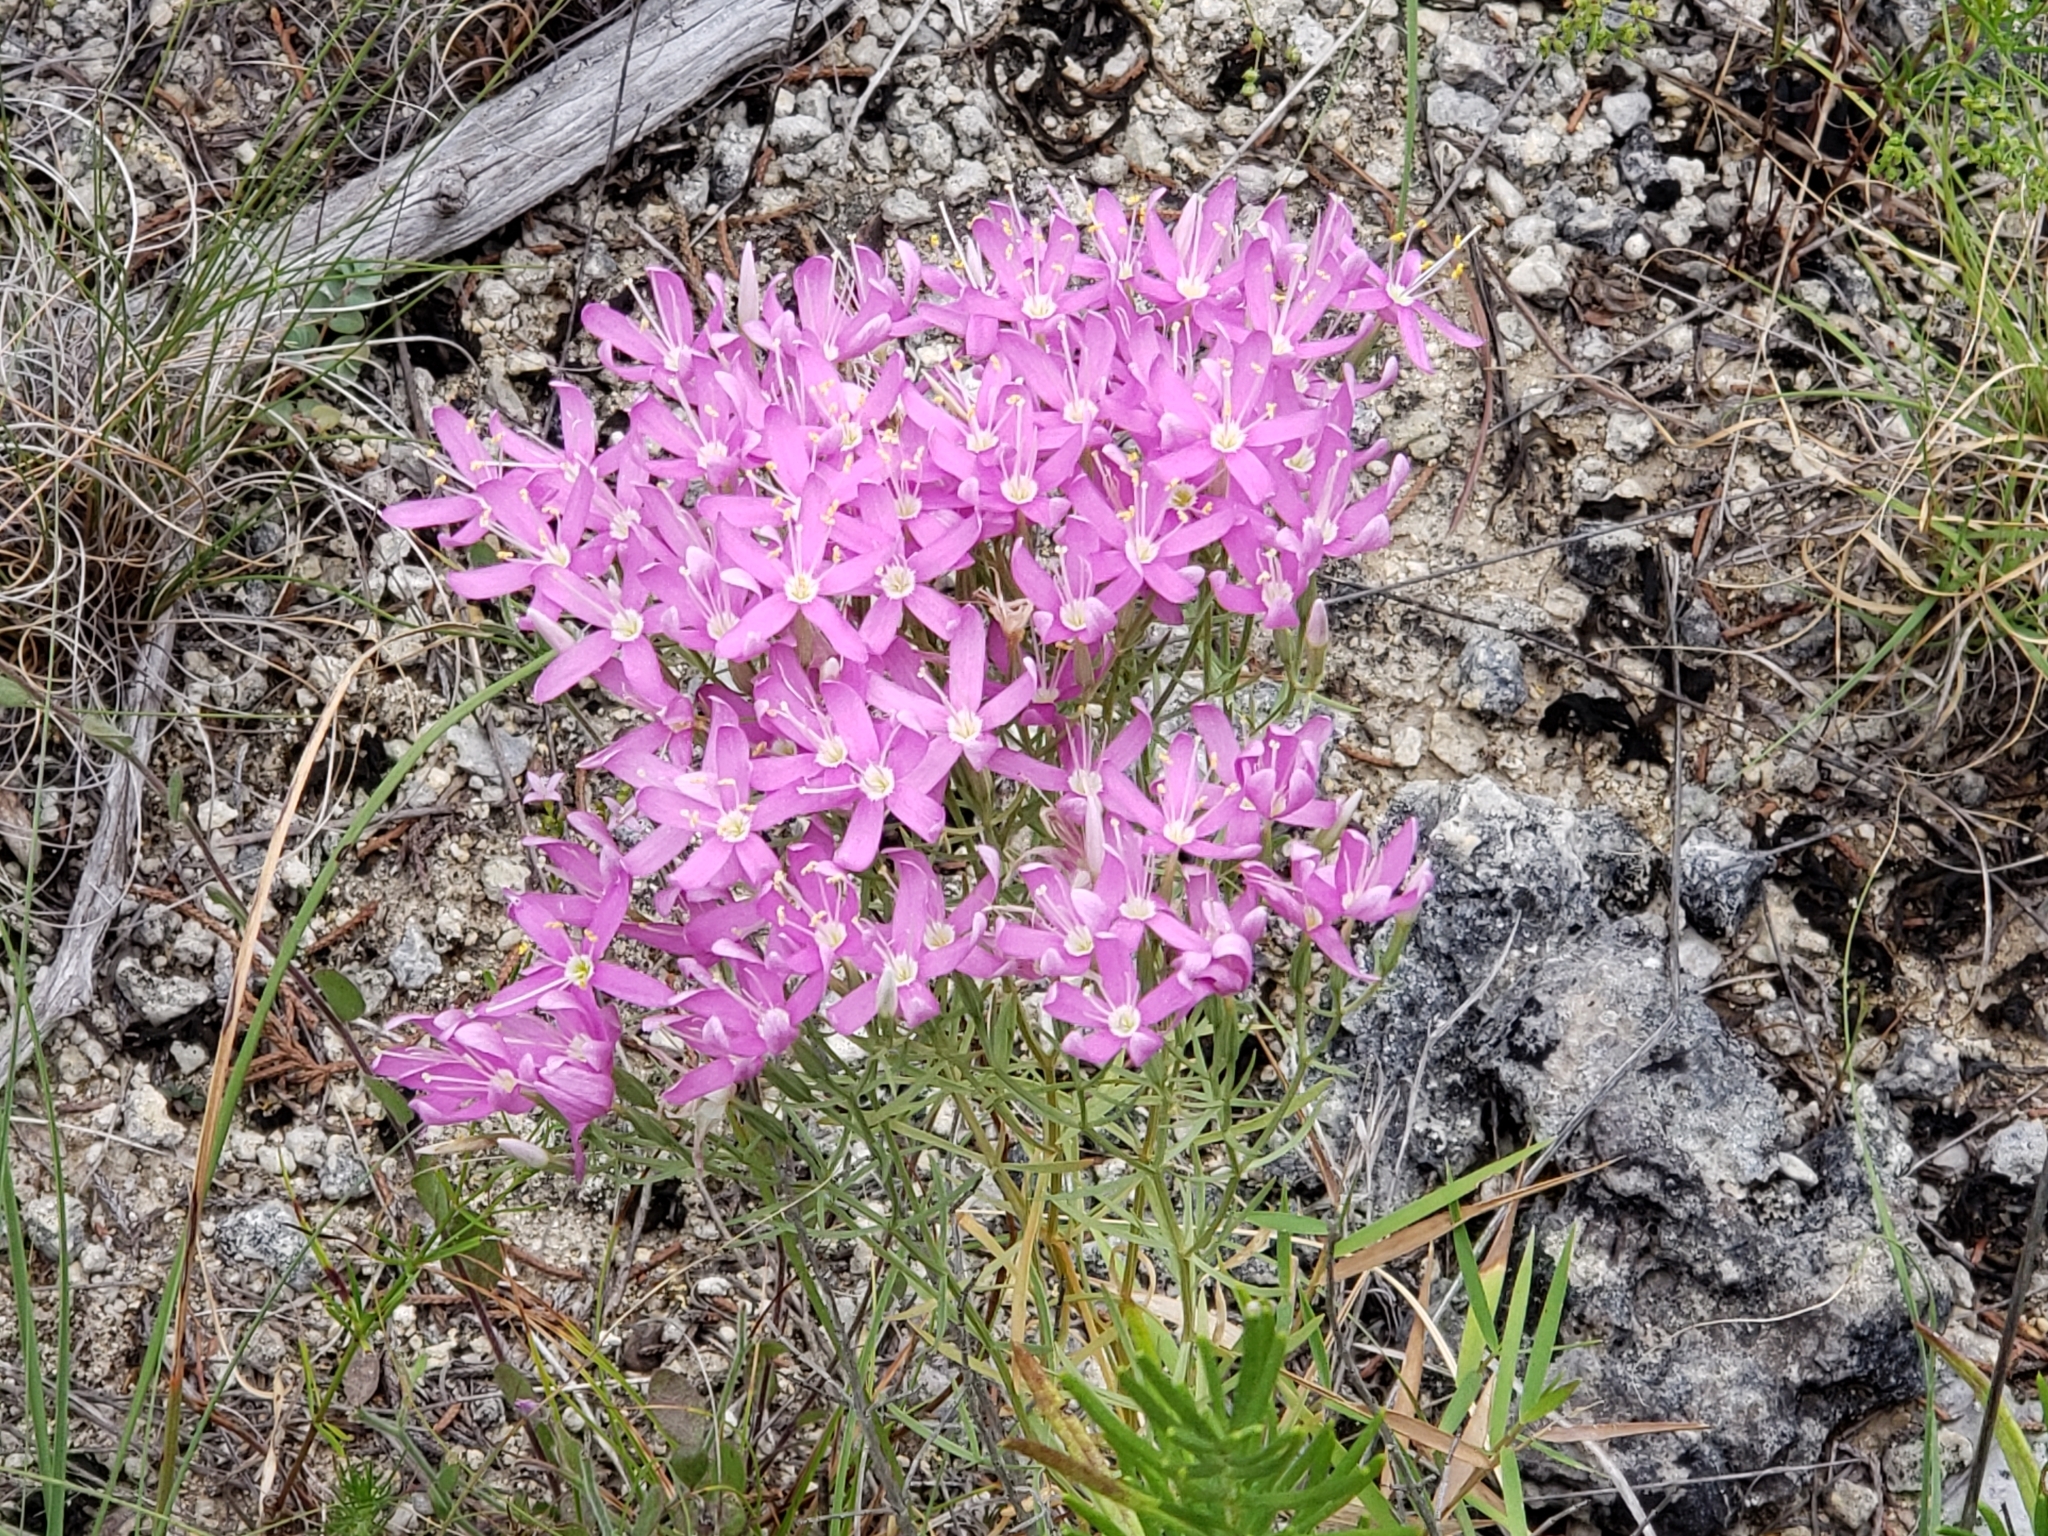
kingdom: Plantae
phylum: Tracheophyta
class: Magnoliopsida
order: Gentianales
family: Gentianaceae
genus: Zeltnera
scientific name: Zeltnera beyrichii
